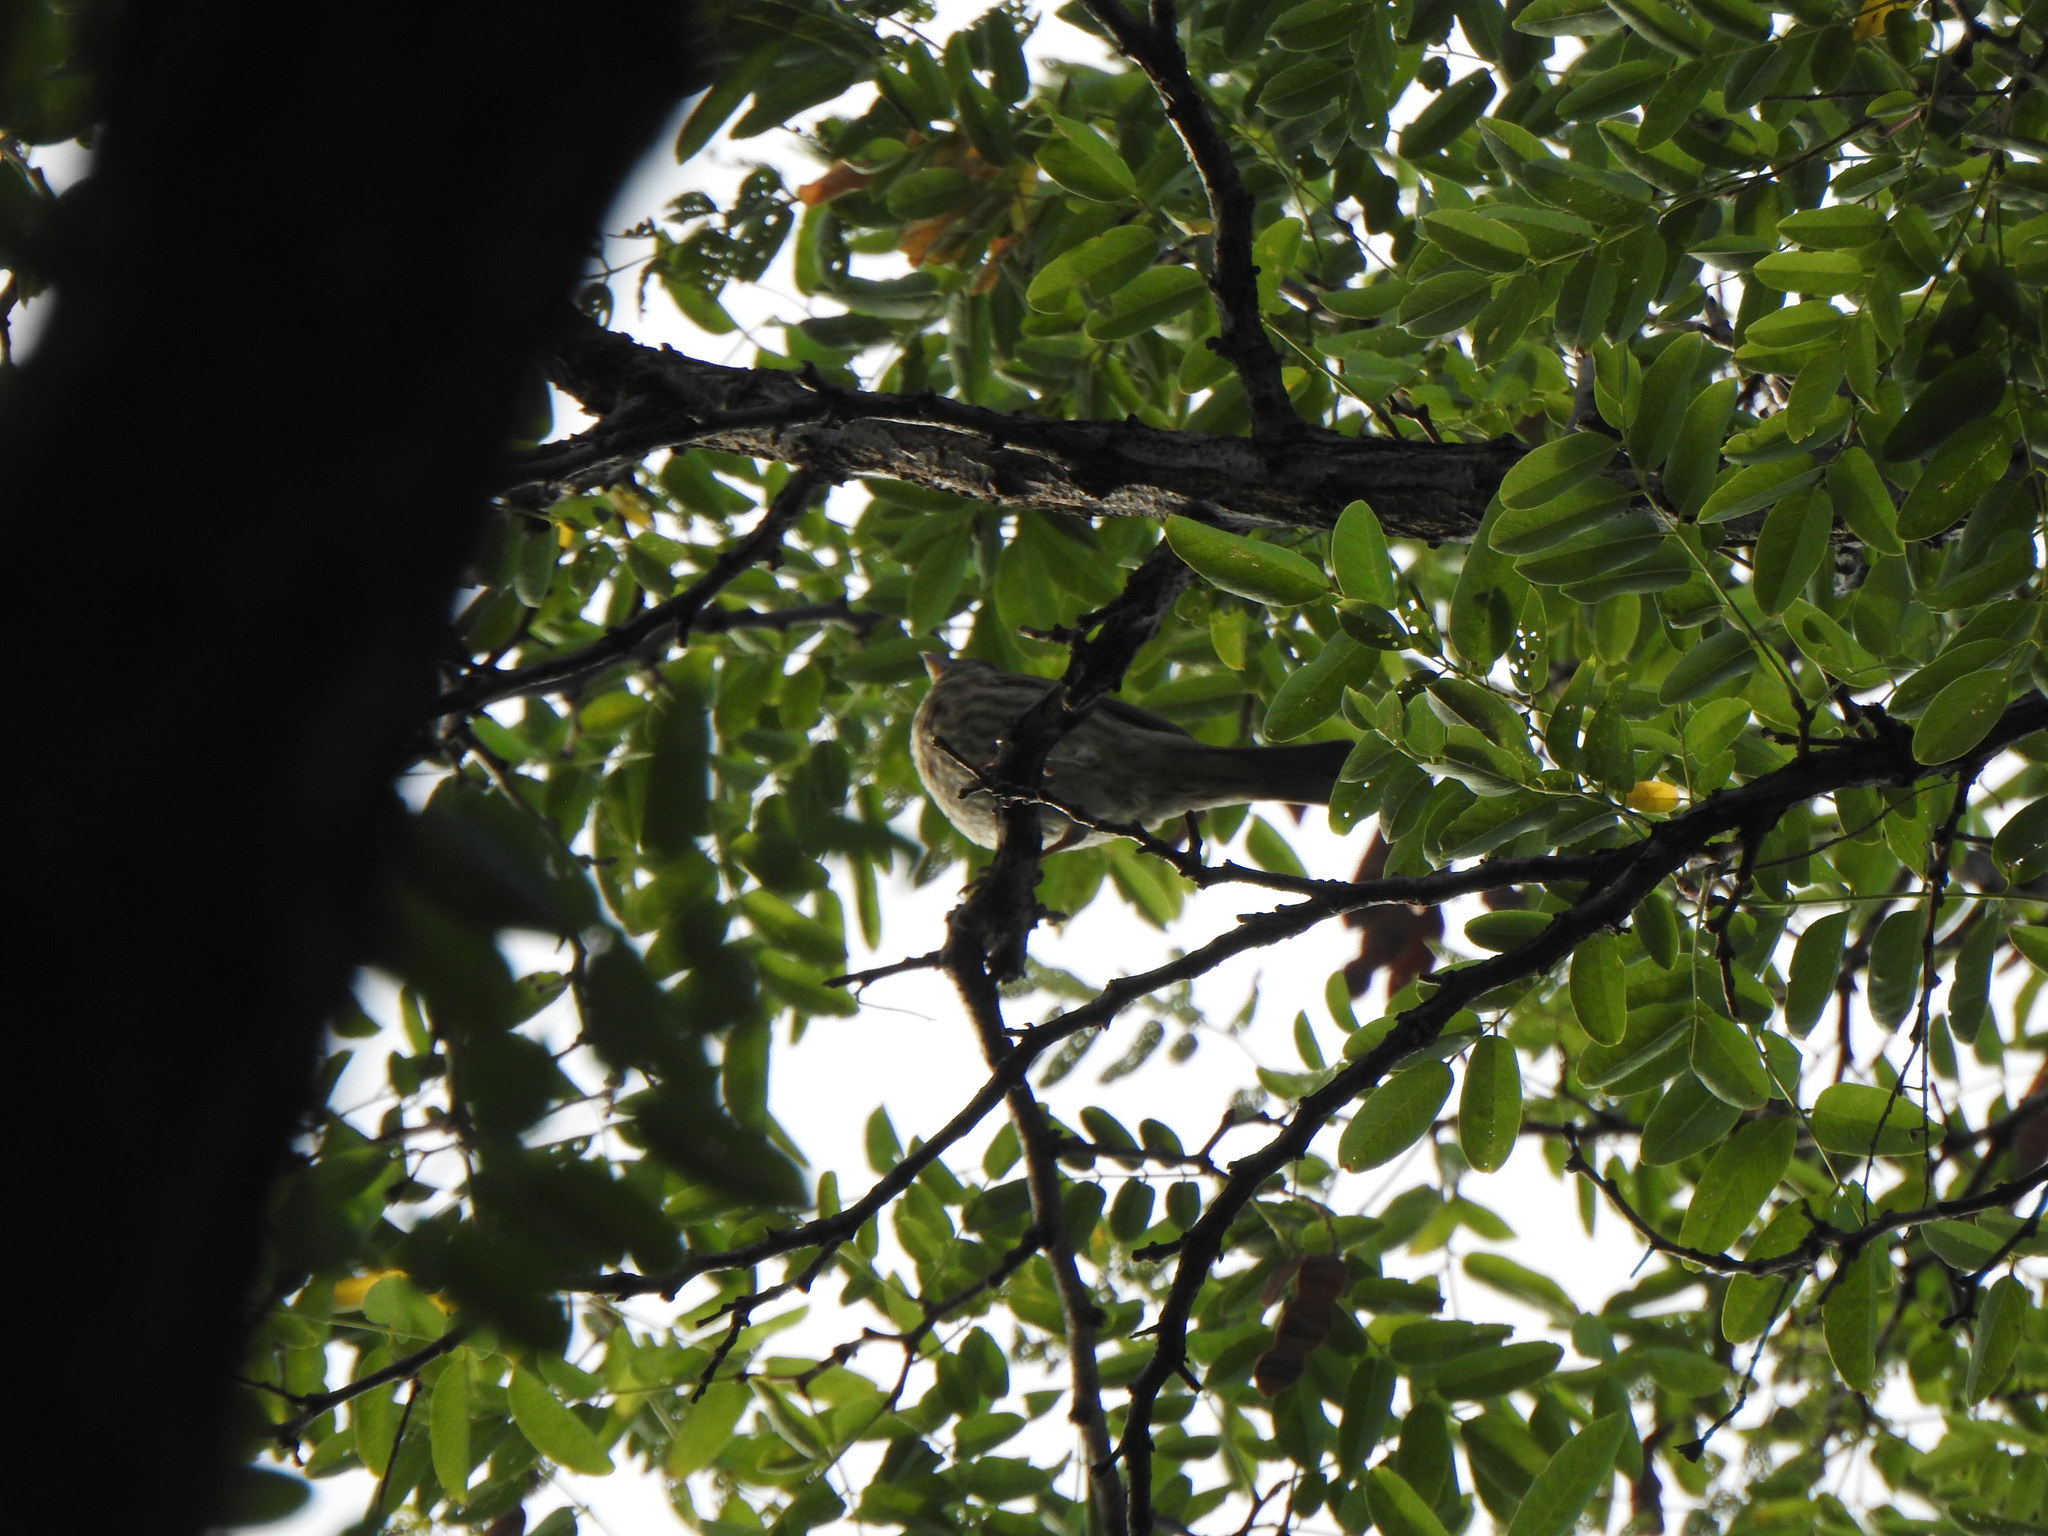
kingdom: Animalia
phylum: Chordata
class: Aves
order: Passeriformes
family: Fringillidae
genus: Haemorhous
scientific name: Haemorhous mexicanus
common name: House finch
